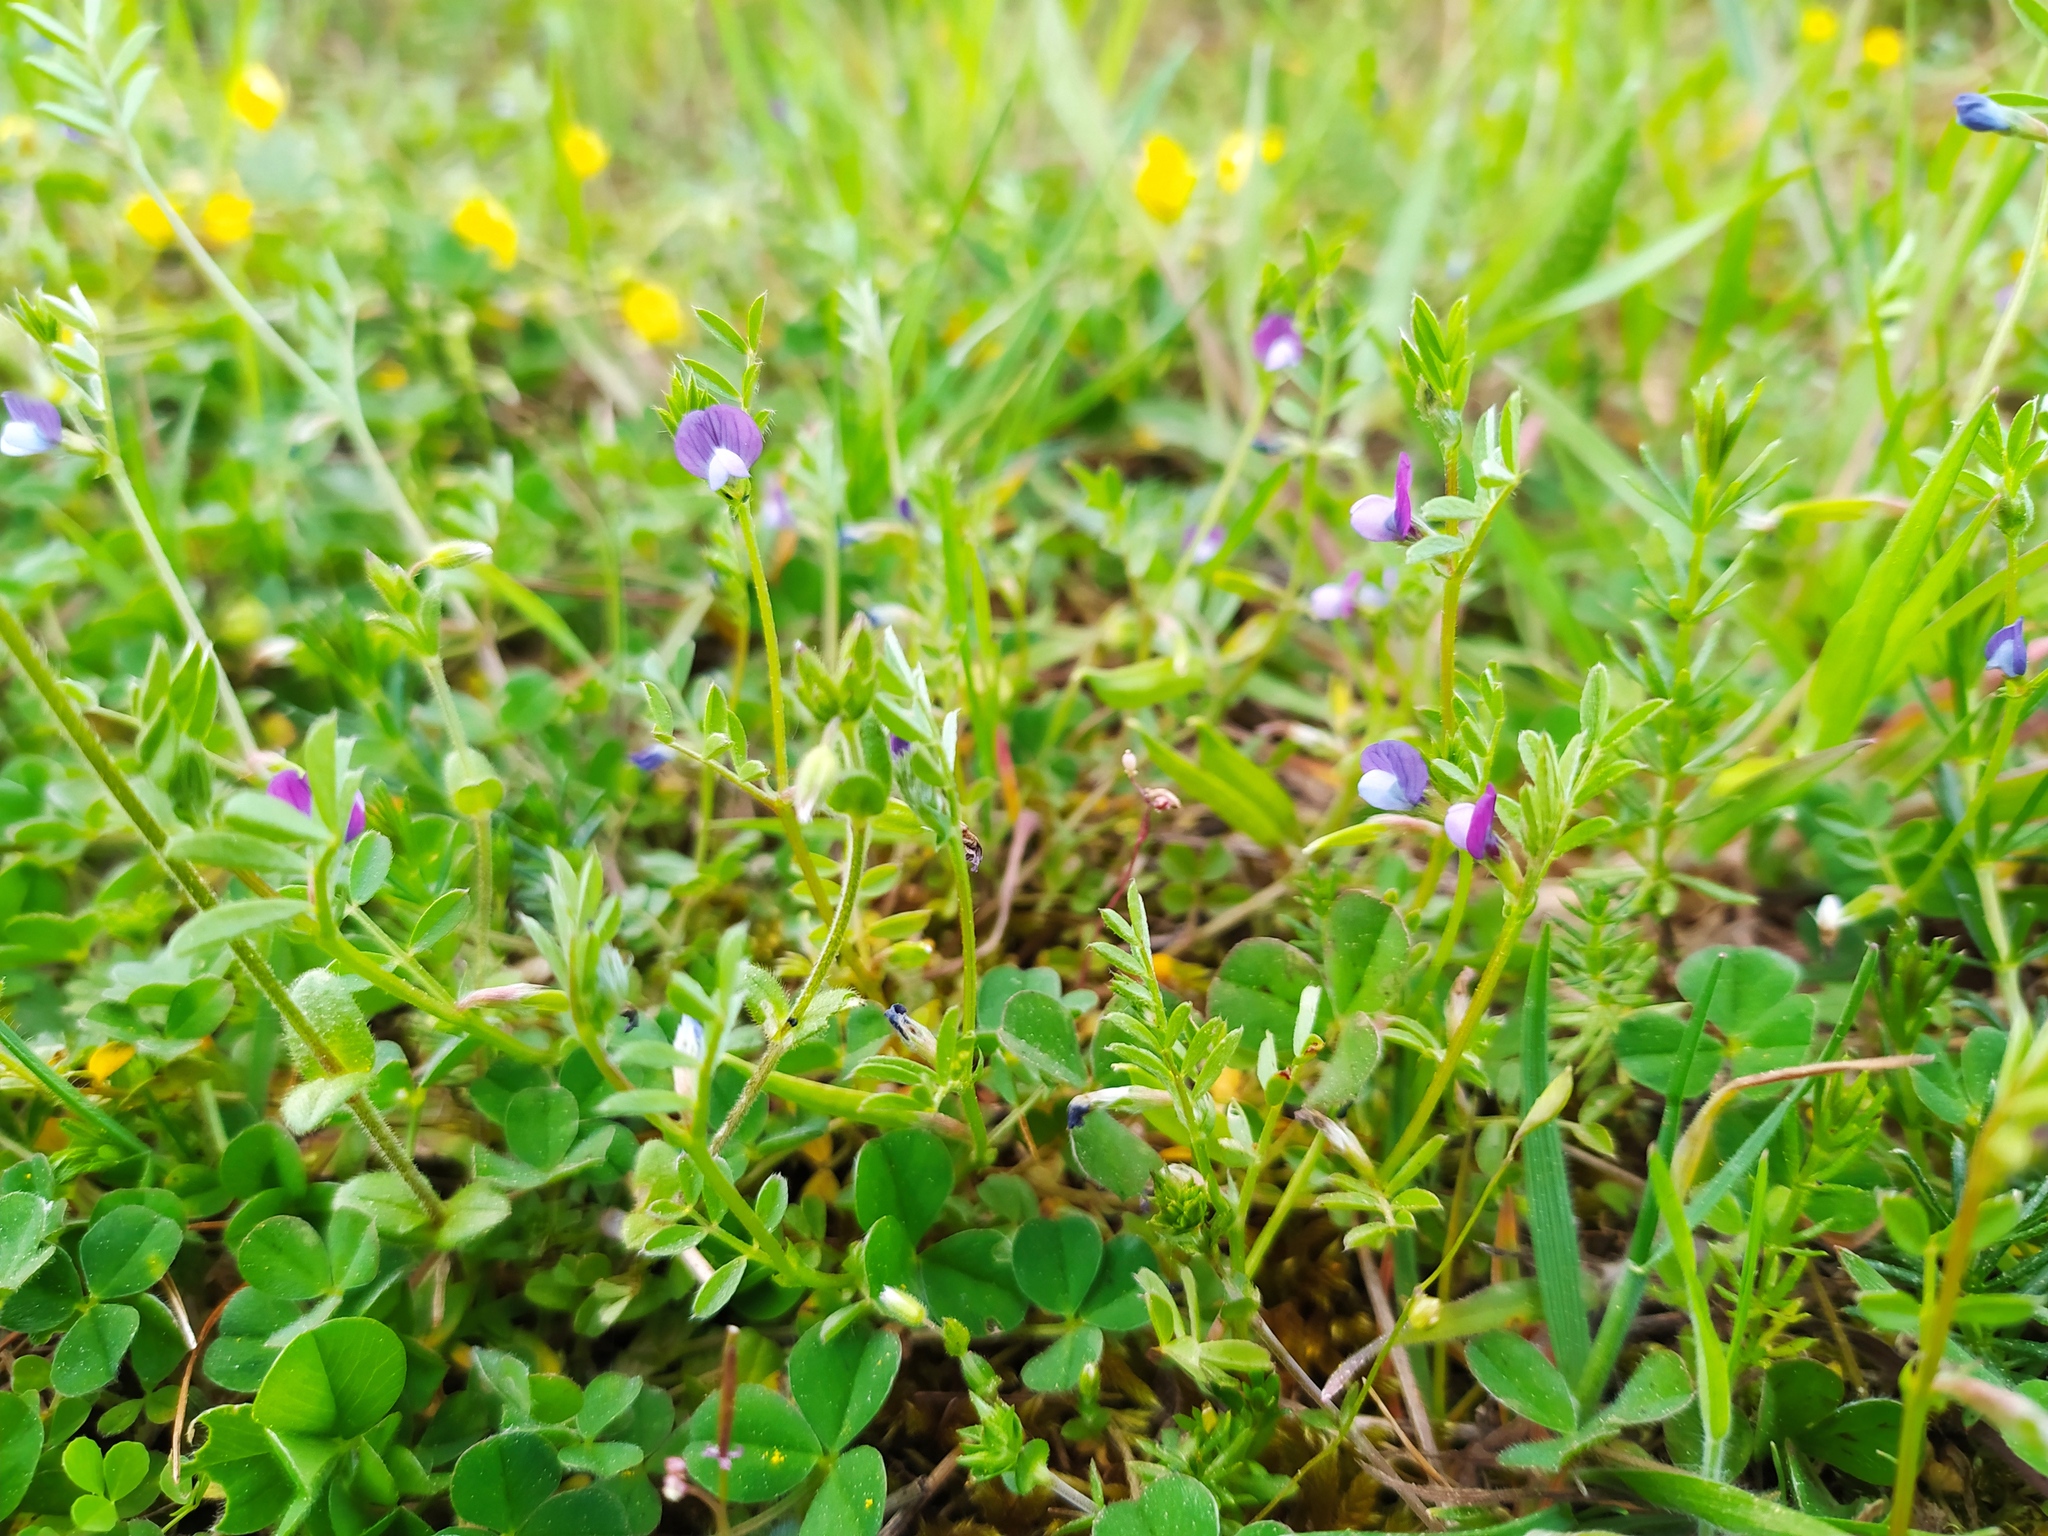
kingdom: Plantae
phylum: Tracheophyta
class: Magnoliopsida
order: Fabales
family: Fabaceae
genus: Vicia
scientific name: Vicia lathyroides
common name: Spring vetch
